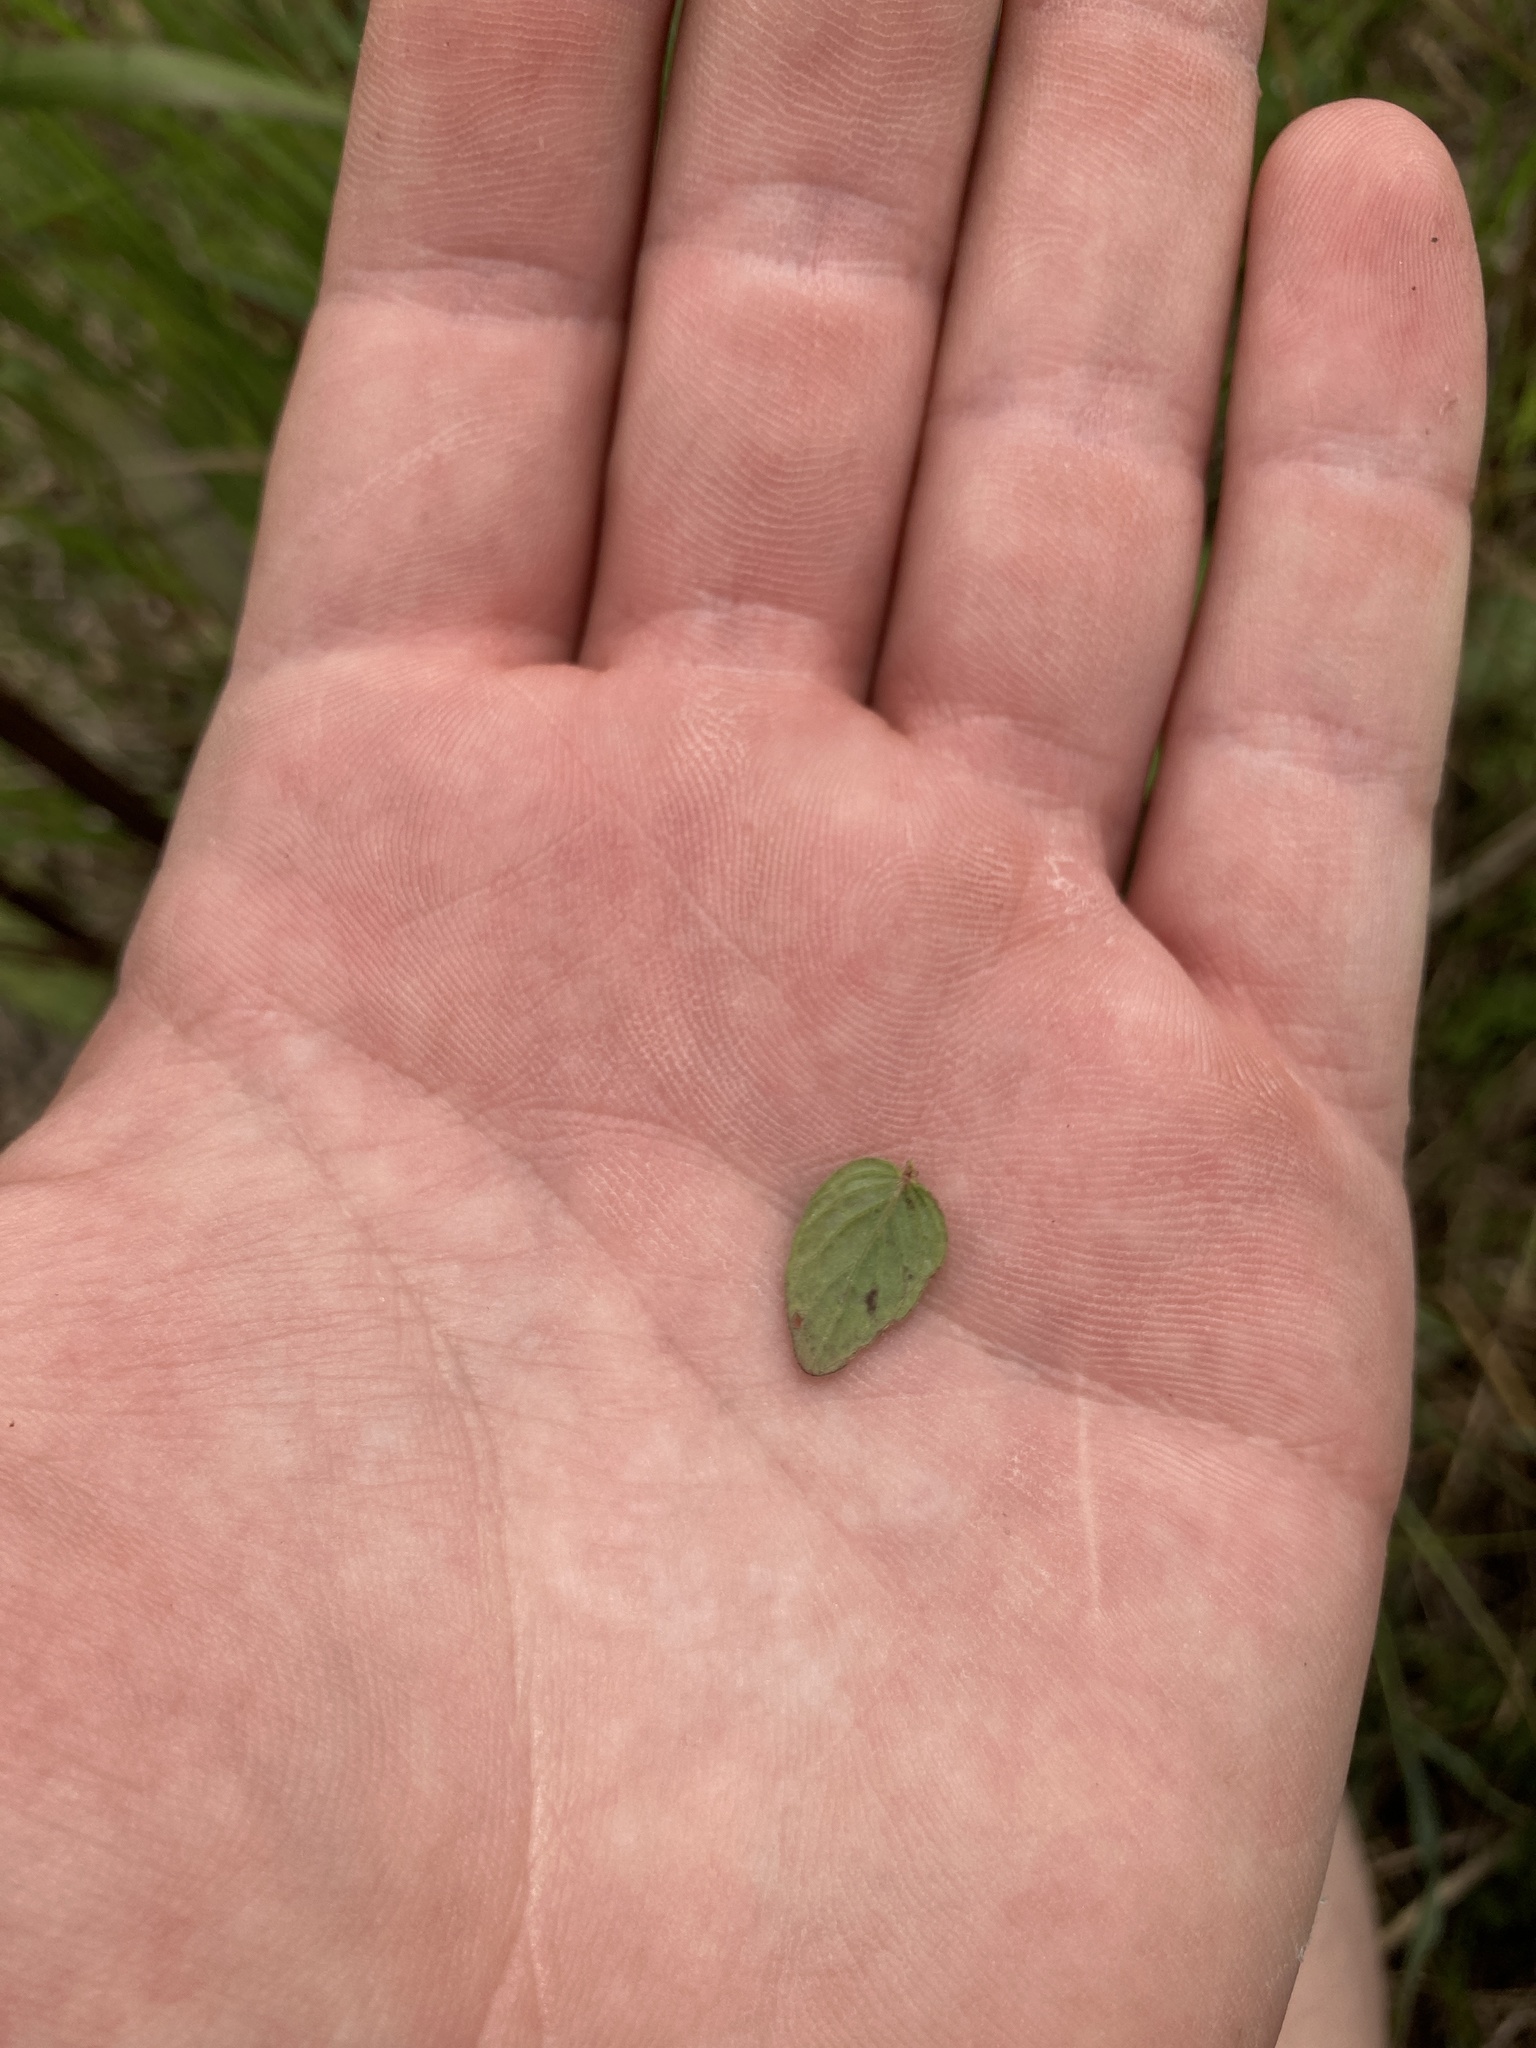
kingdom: Plantae
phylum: Tracheophyta
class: Magnoliopsida
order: Lamiales
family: Lamiaceae
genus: Scutellaria
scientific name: Scutellaria parvula
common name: Little scullcap
